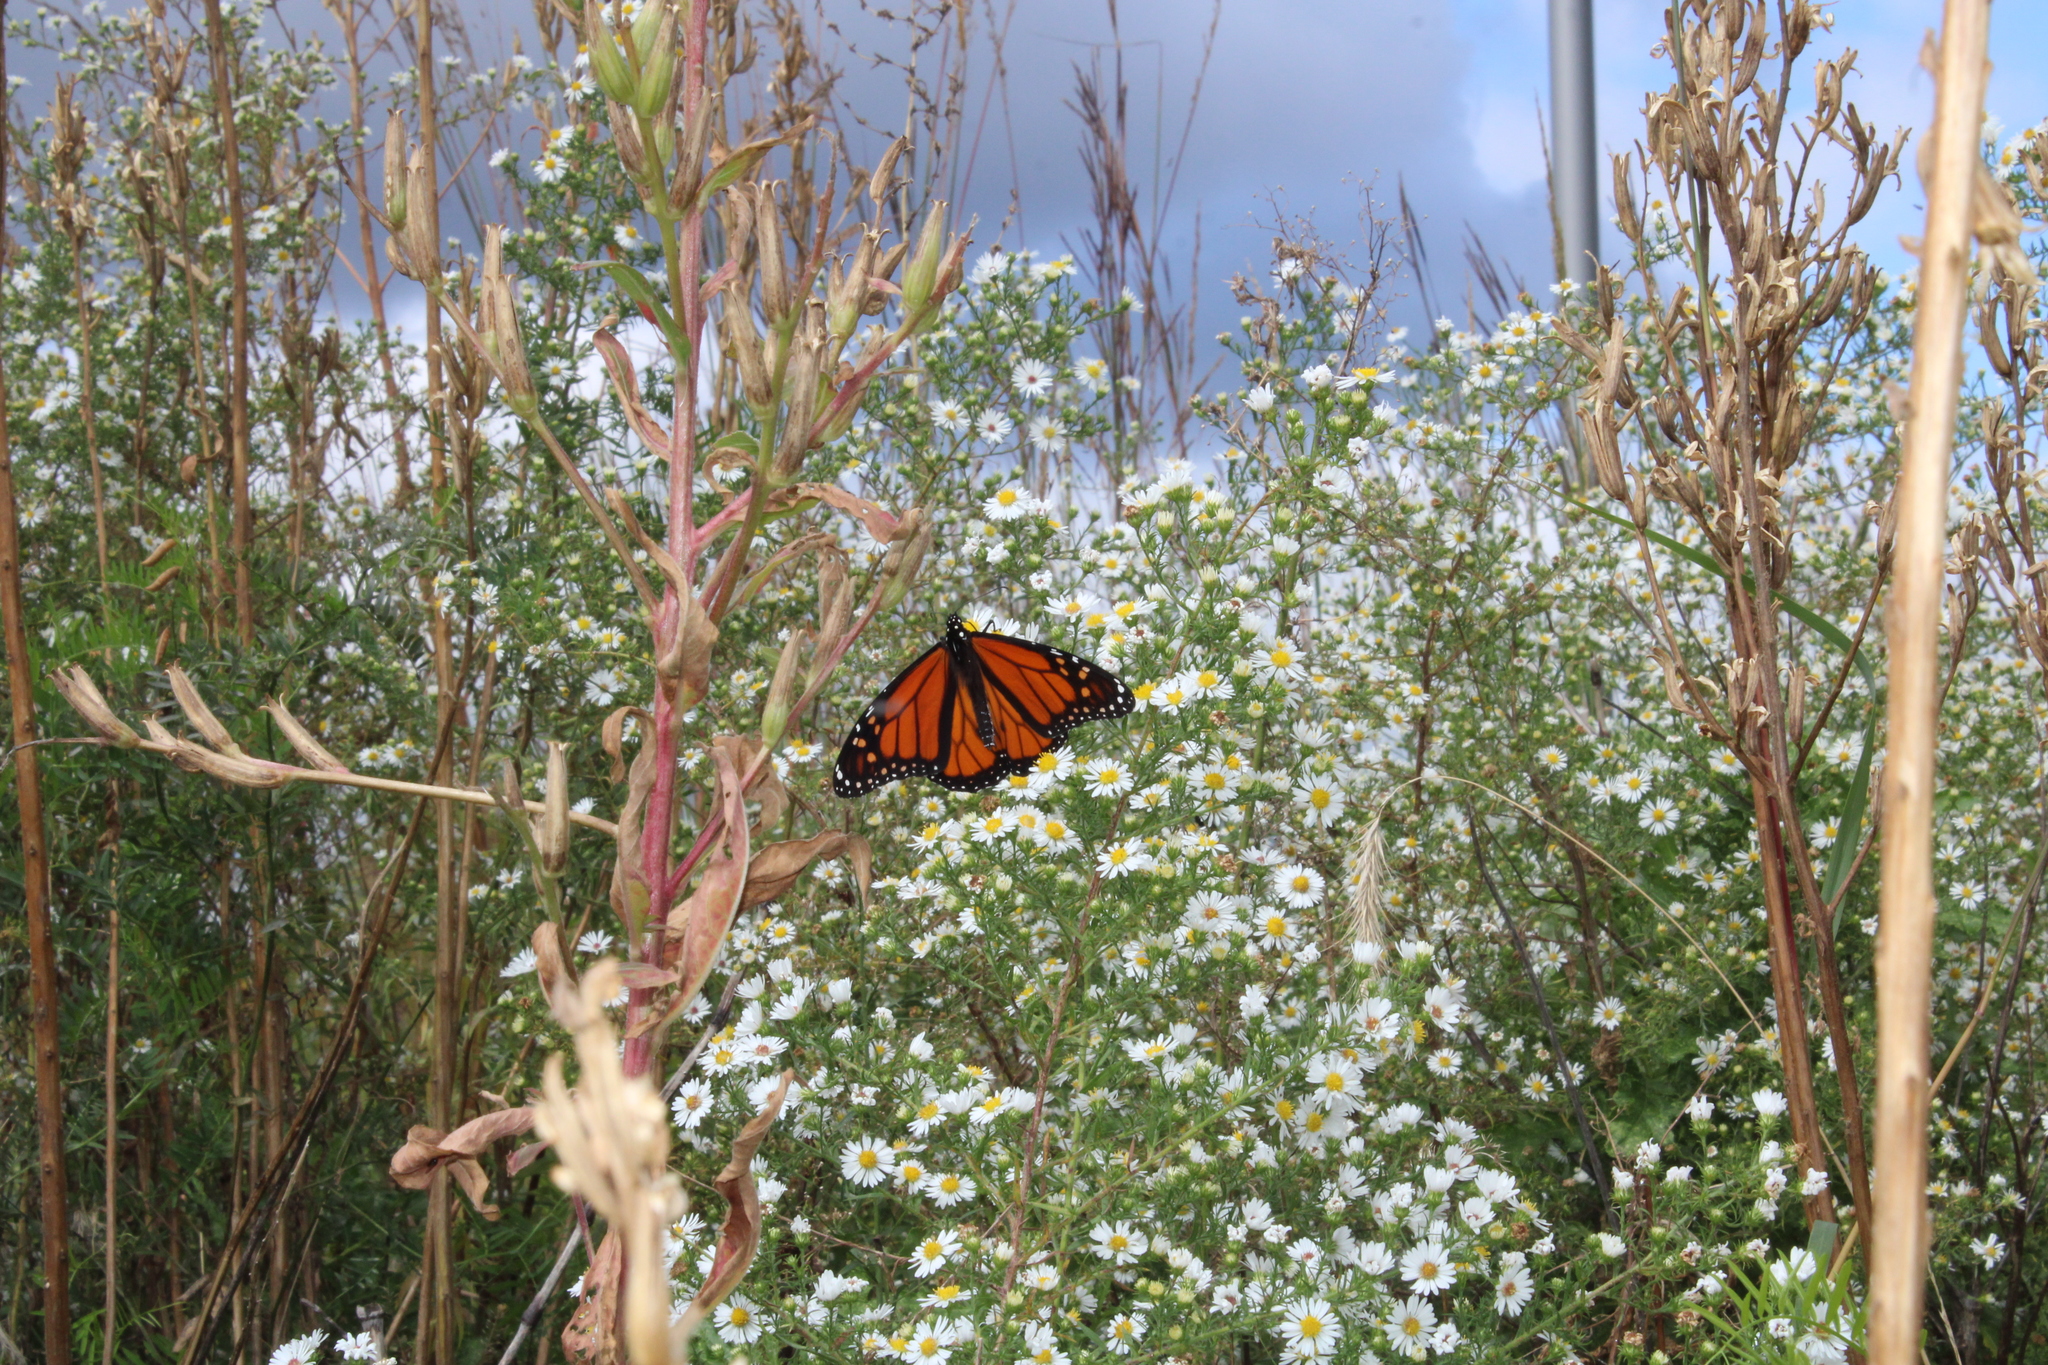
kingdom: Animalia
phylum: Arthropoda
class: Insecta
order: Lepidoptera
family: Nymphalidae
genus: Danaus
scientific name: Danaus plexippus
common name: Monarch
